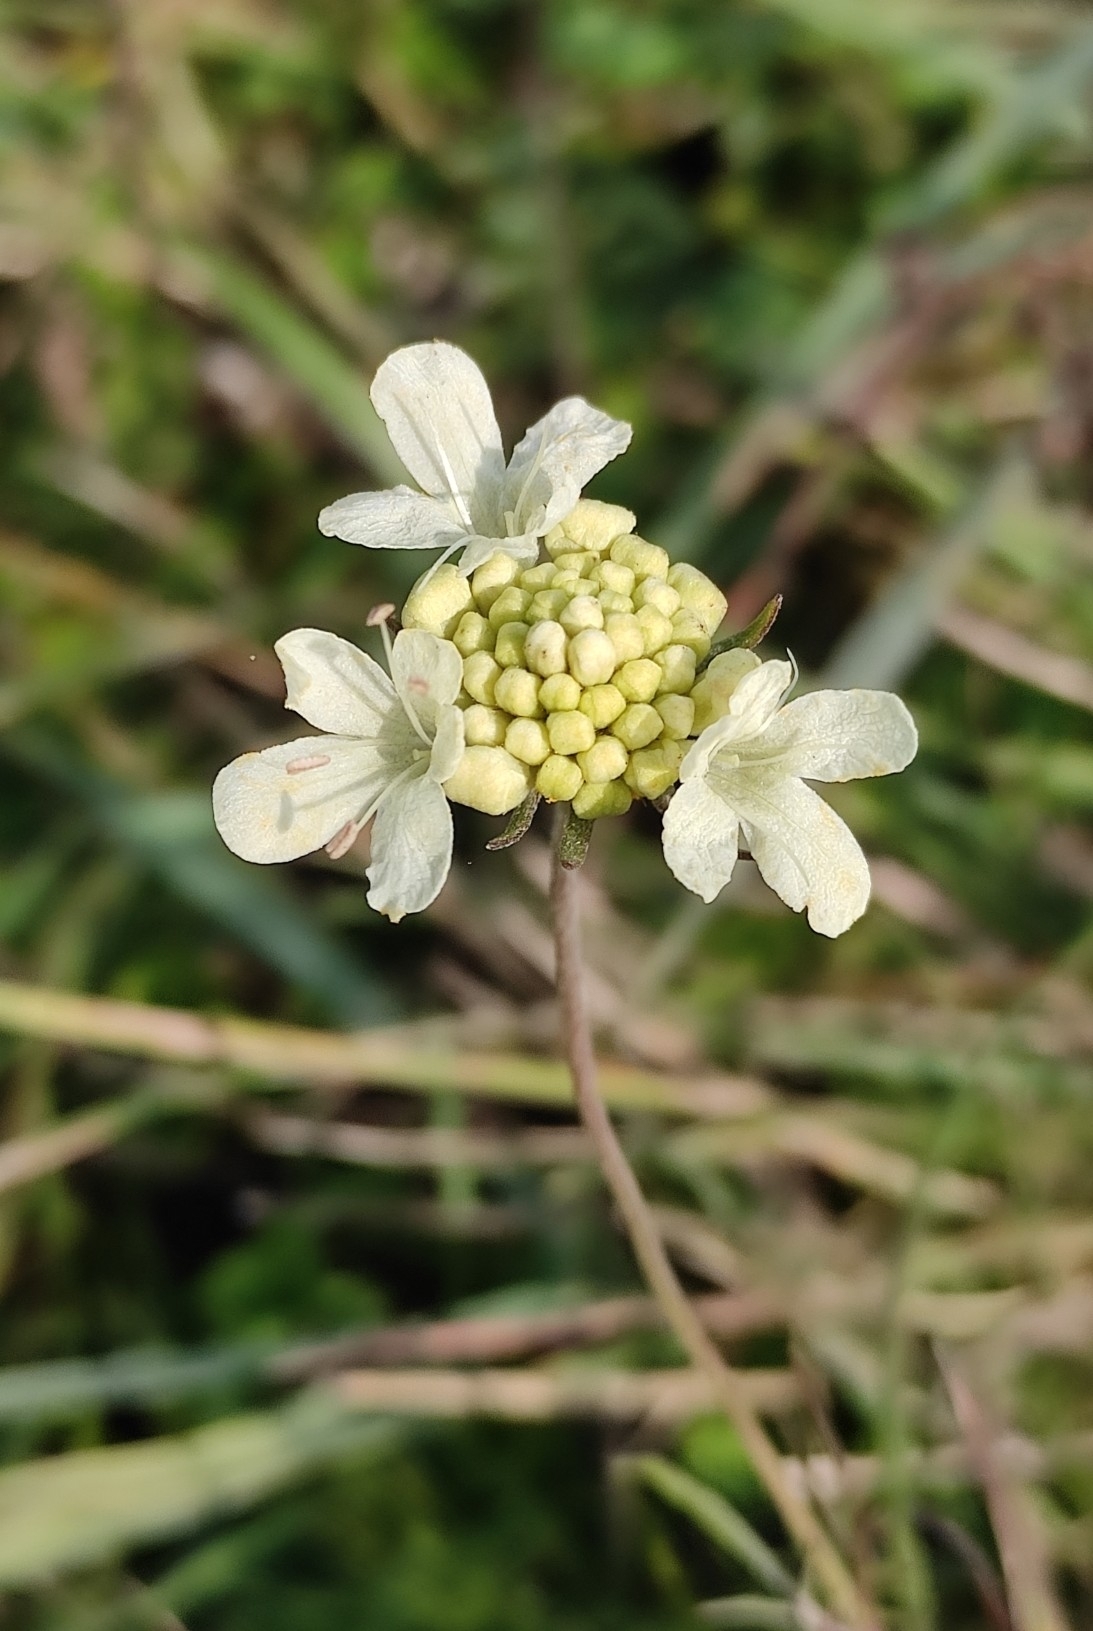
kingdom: Plantae
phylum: Tracheophyta
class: Magnoliopsida
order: Dipsacales
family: Caprifoliaceae
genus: Scabiosa
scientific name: Scabiosa ochroleuca
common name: Cream pincushions
